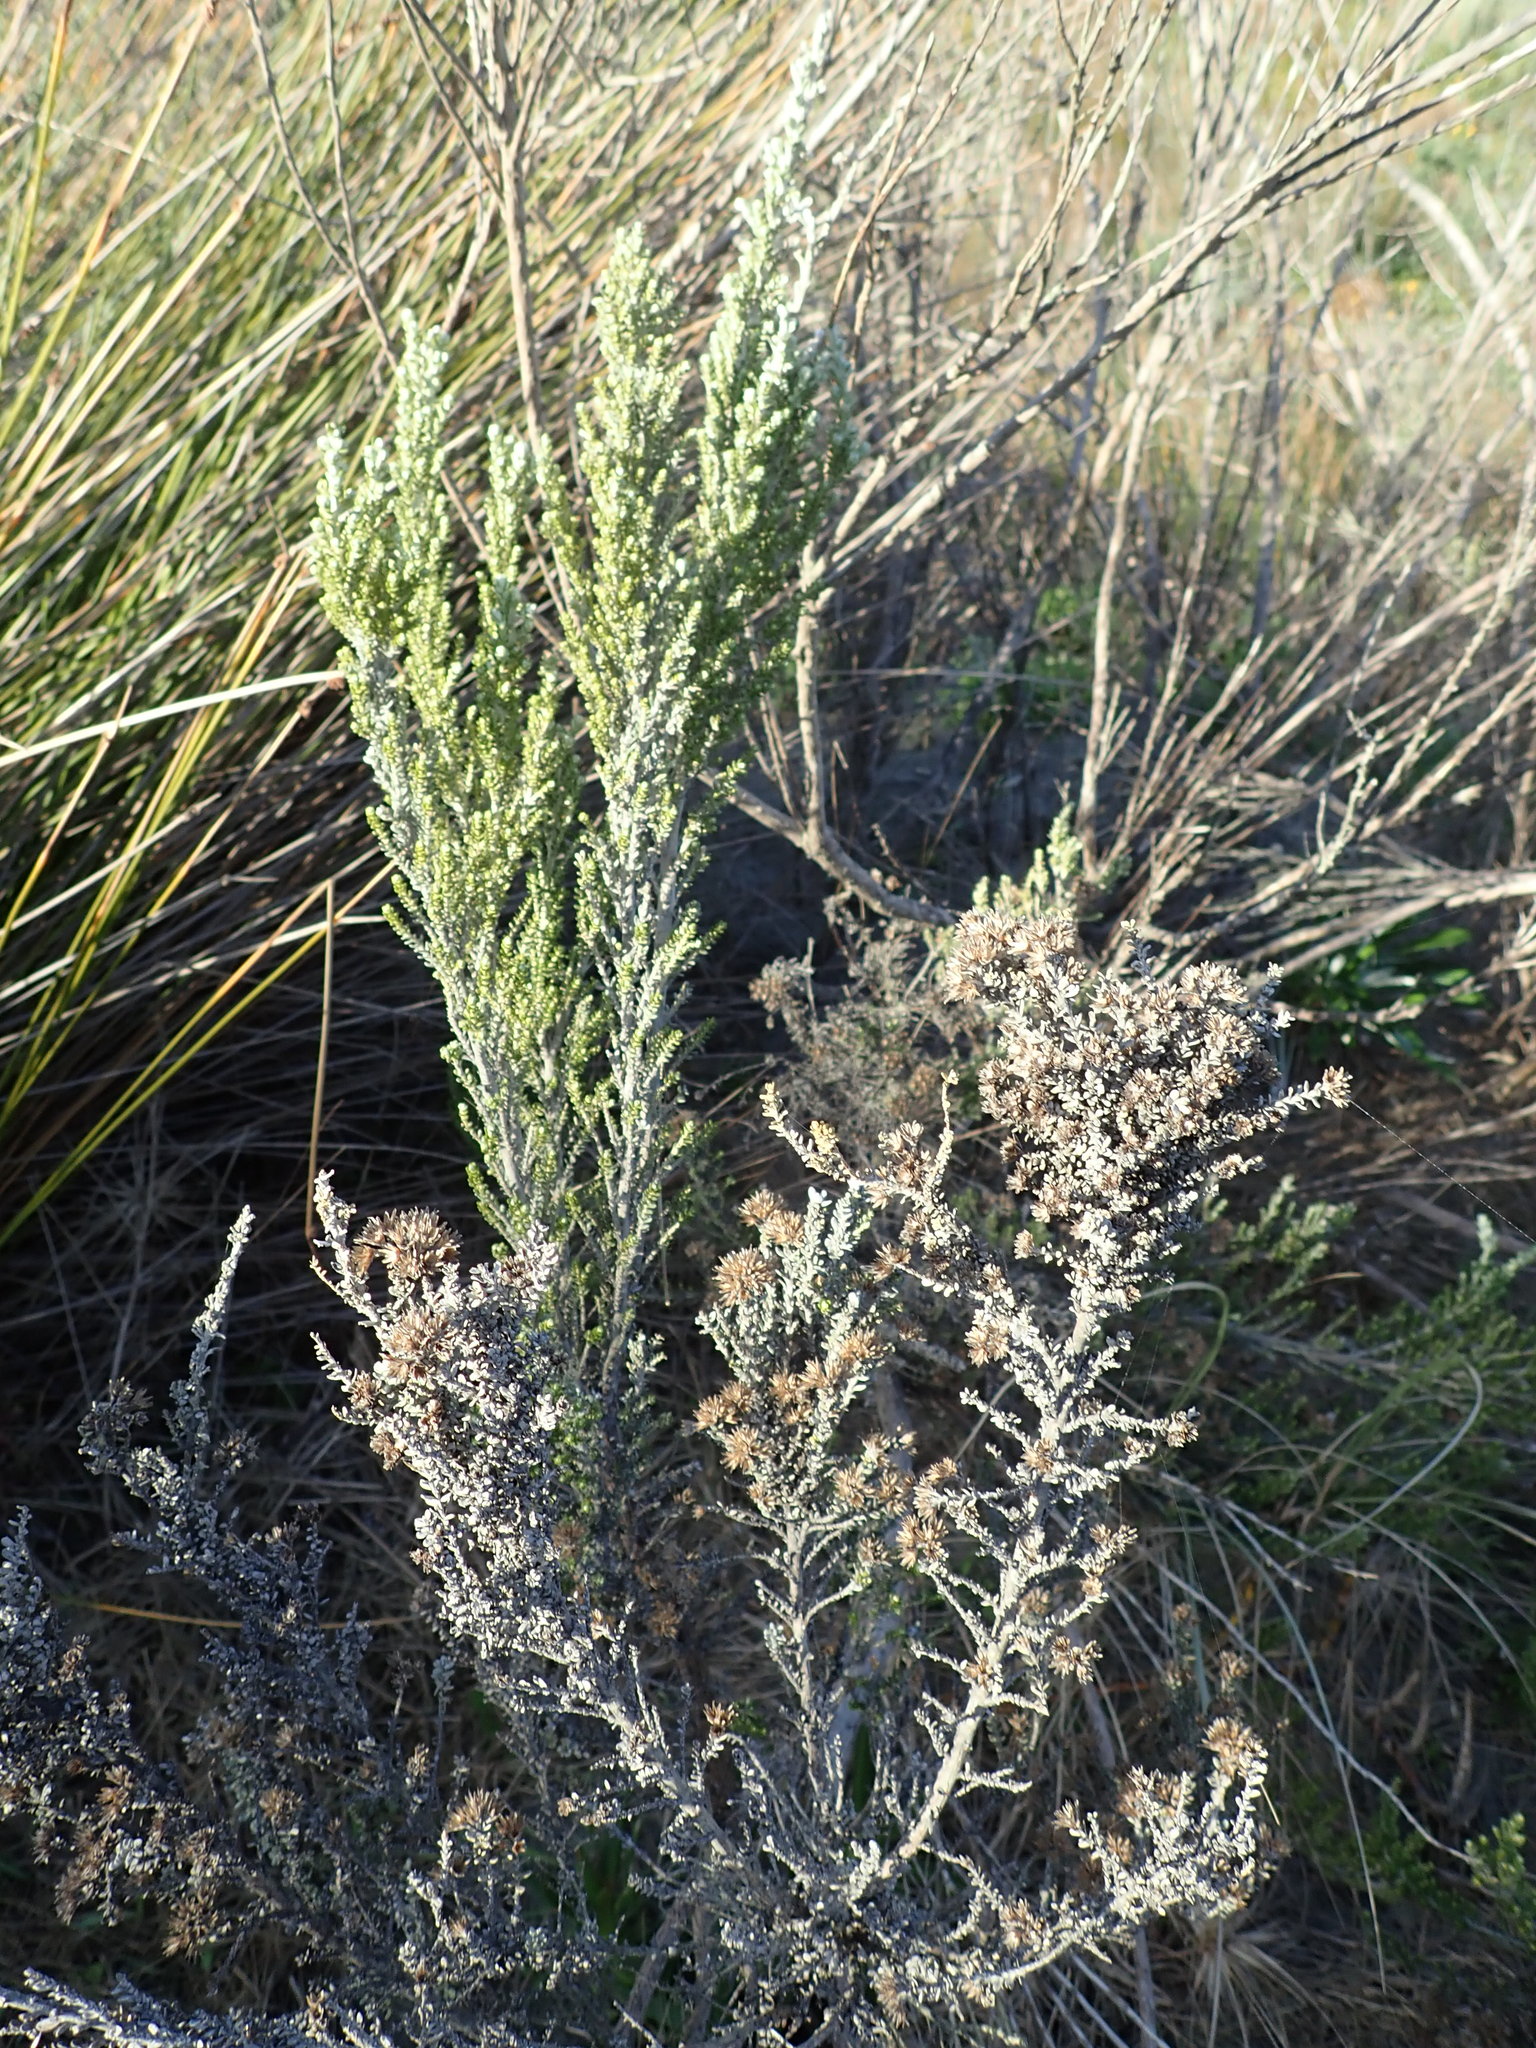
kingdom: Plantae
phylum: Tracheophyta
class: Magnoliopsida
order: Asterales
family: Asteraceae
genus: Ozothamnus
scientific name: Ozothamnus leptophyllus
